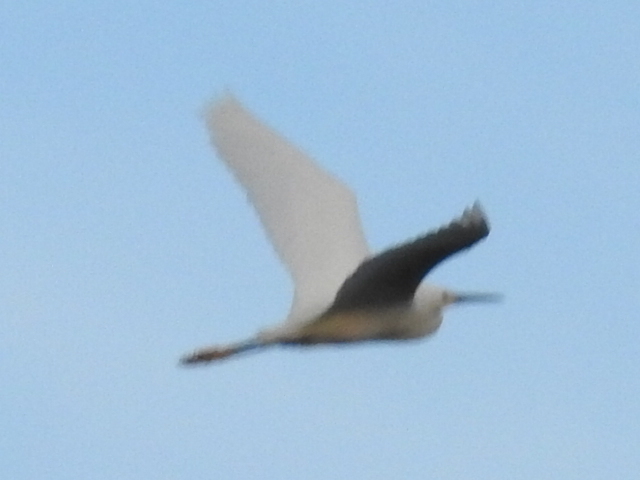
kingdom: Animalia
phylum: Chordata
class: Aves
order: Pelecaniformes
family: Ardeidae
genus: Egretta
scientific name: Egretta thula
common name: Snowy egret
